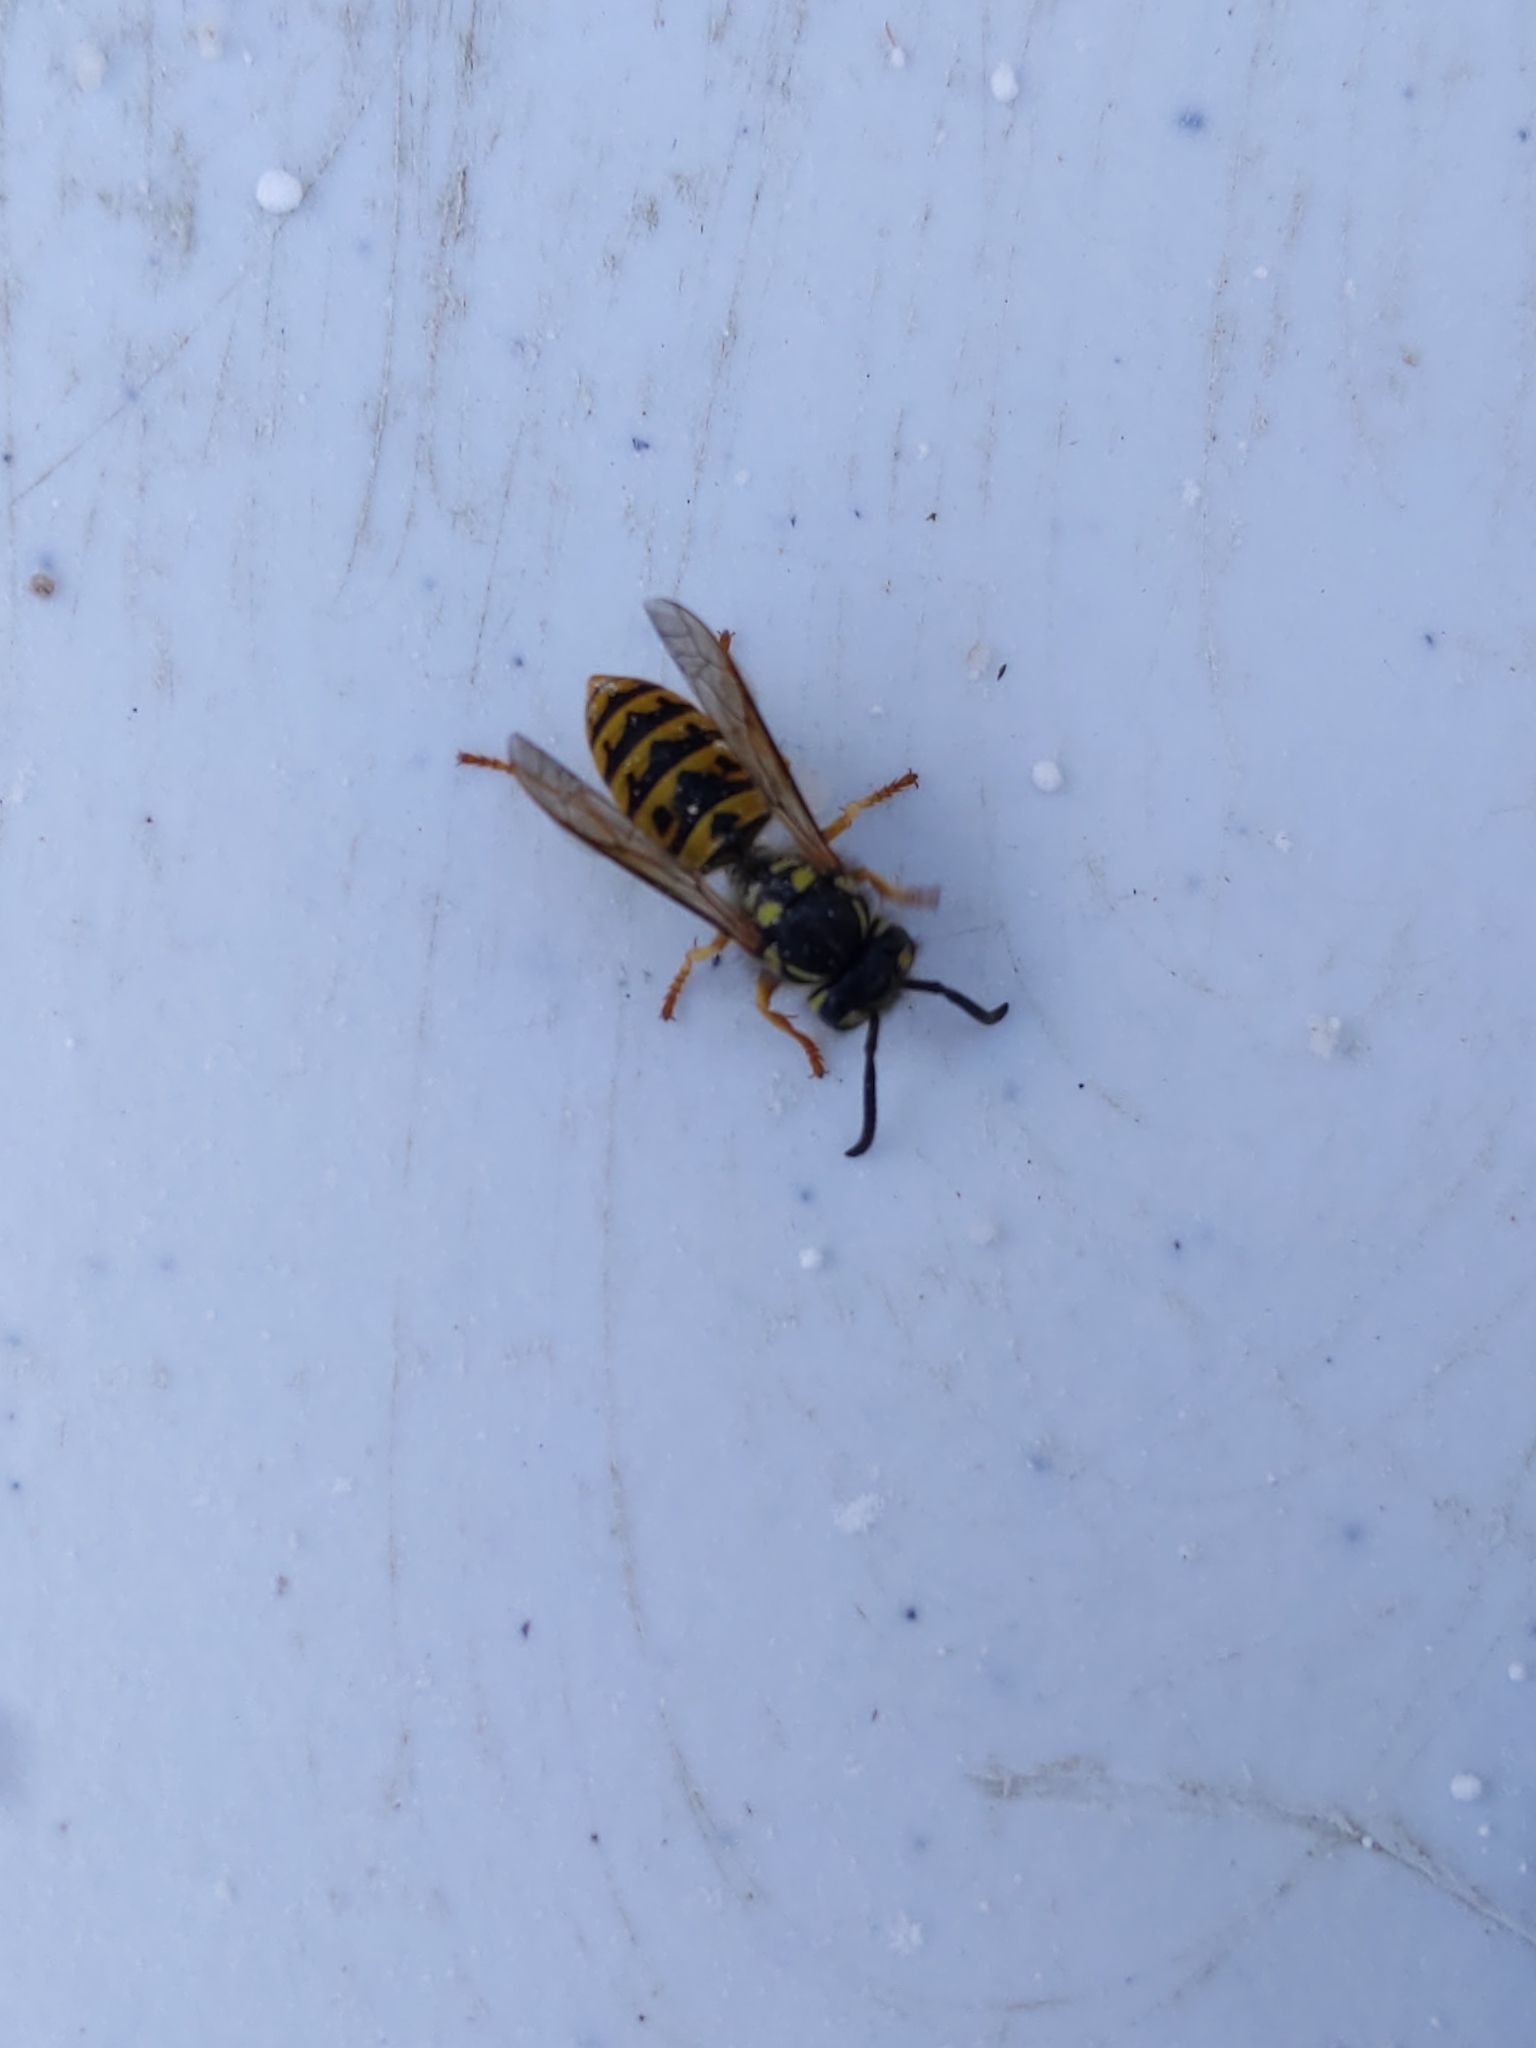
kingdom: Animalia
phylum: Arthropoda
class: Insecta
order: Hymenoptera
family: Vespidae
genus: Vespula
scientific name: Vespula germanica
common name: German wasp
